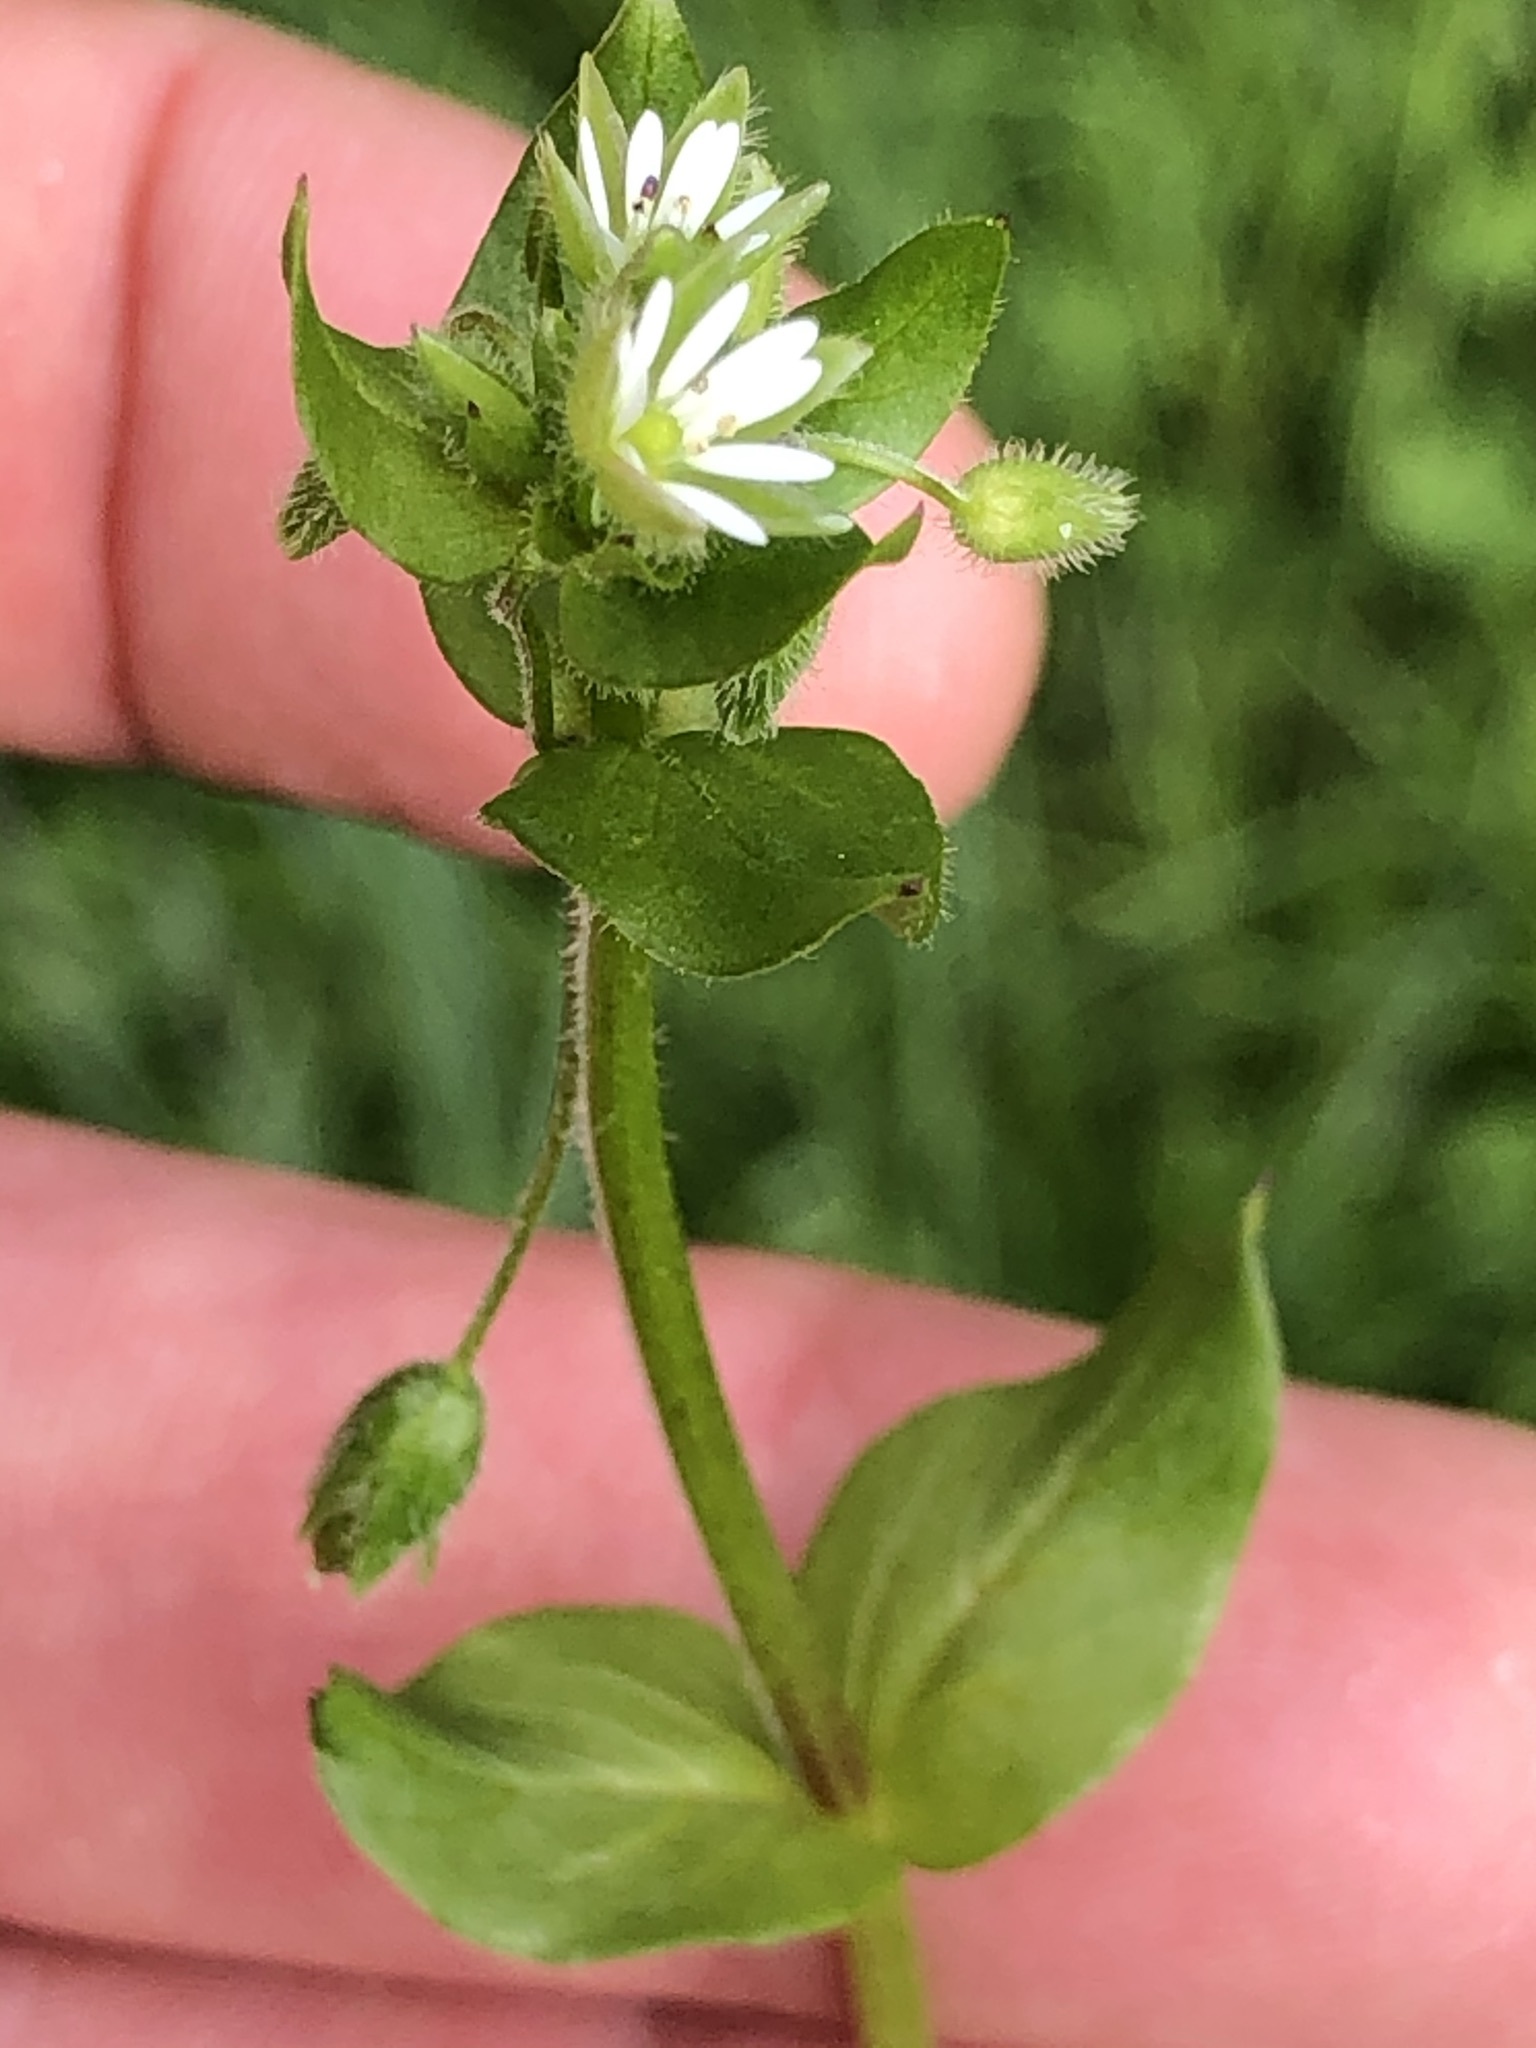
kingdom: Plantae
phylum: Tracheophyta
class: Magnoliopsida
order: Caryophyllales
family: Caryophyllaceae
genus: Stellaria
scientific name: Stellaria media
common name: Common chickweed
